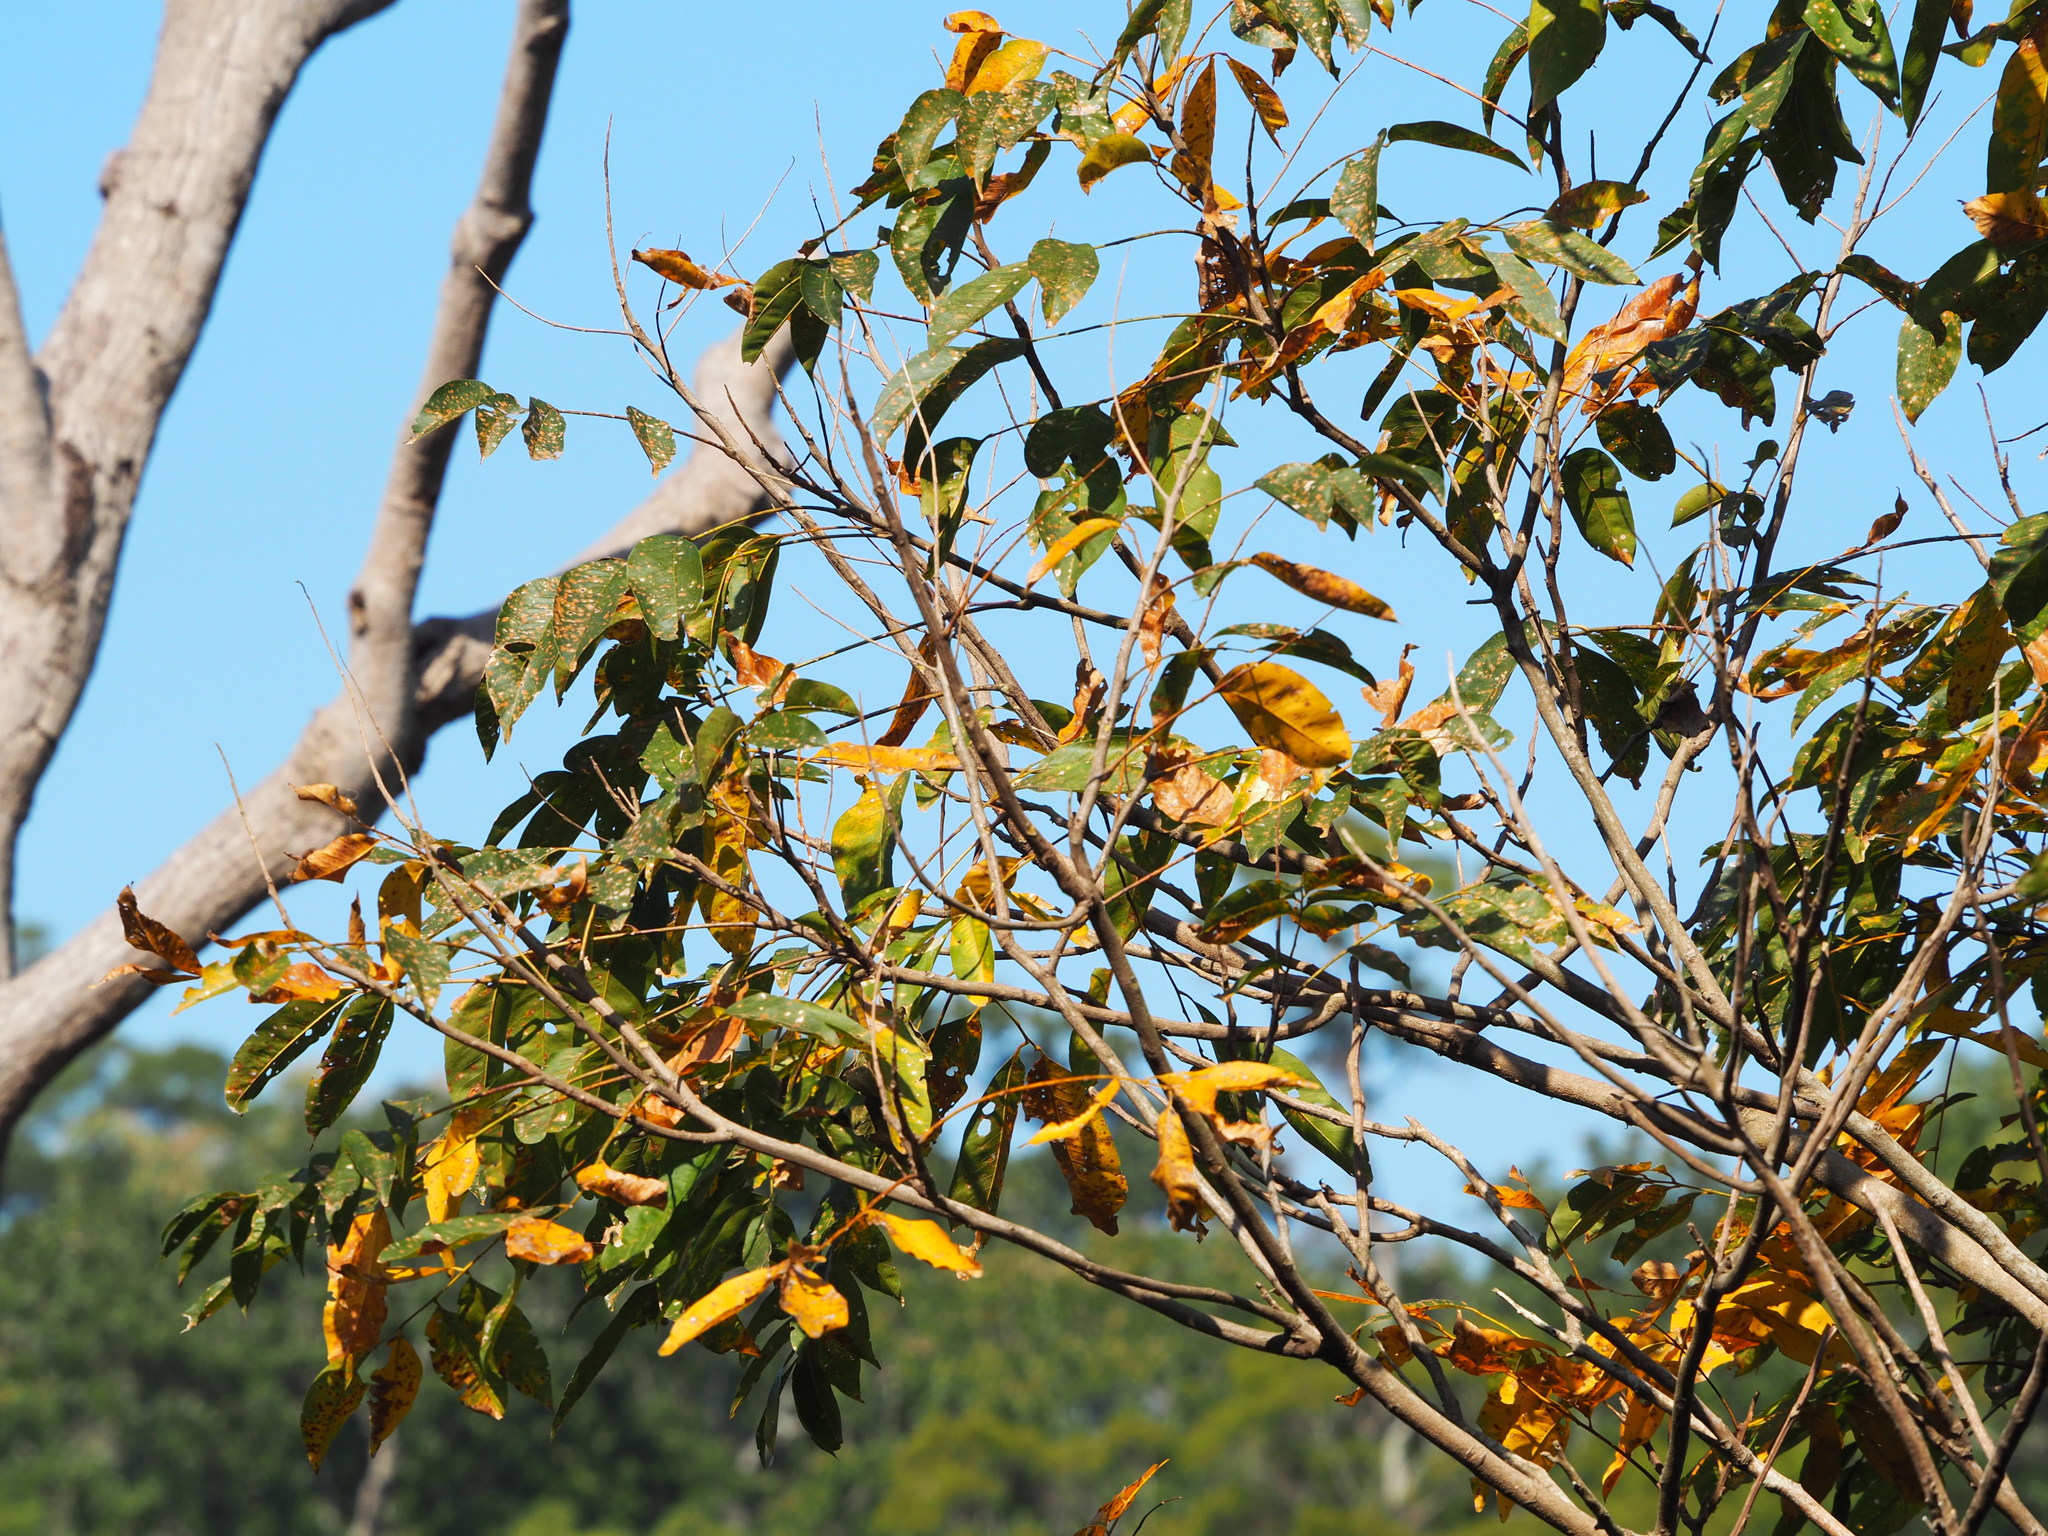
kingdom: Plantae
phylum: Tracheophyta
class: Magnoliopsida
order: Sapindales
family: Sapindaceae
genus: Sapindus
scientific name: Sapindus mukorossi
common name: Chinese soapberry
